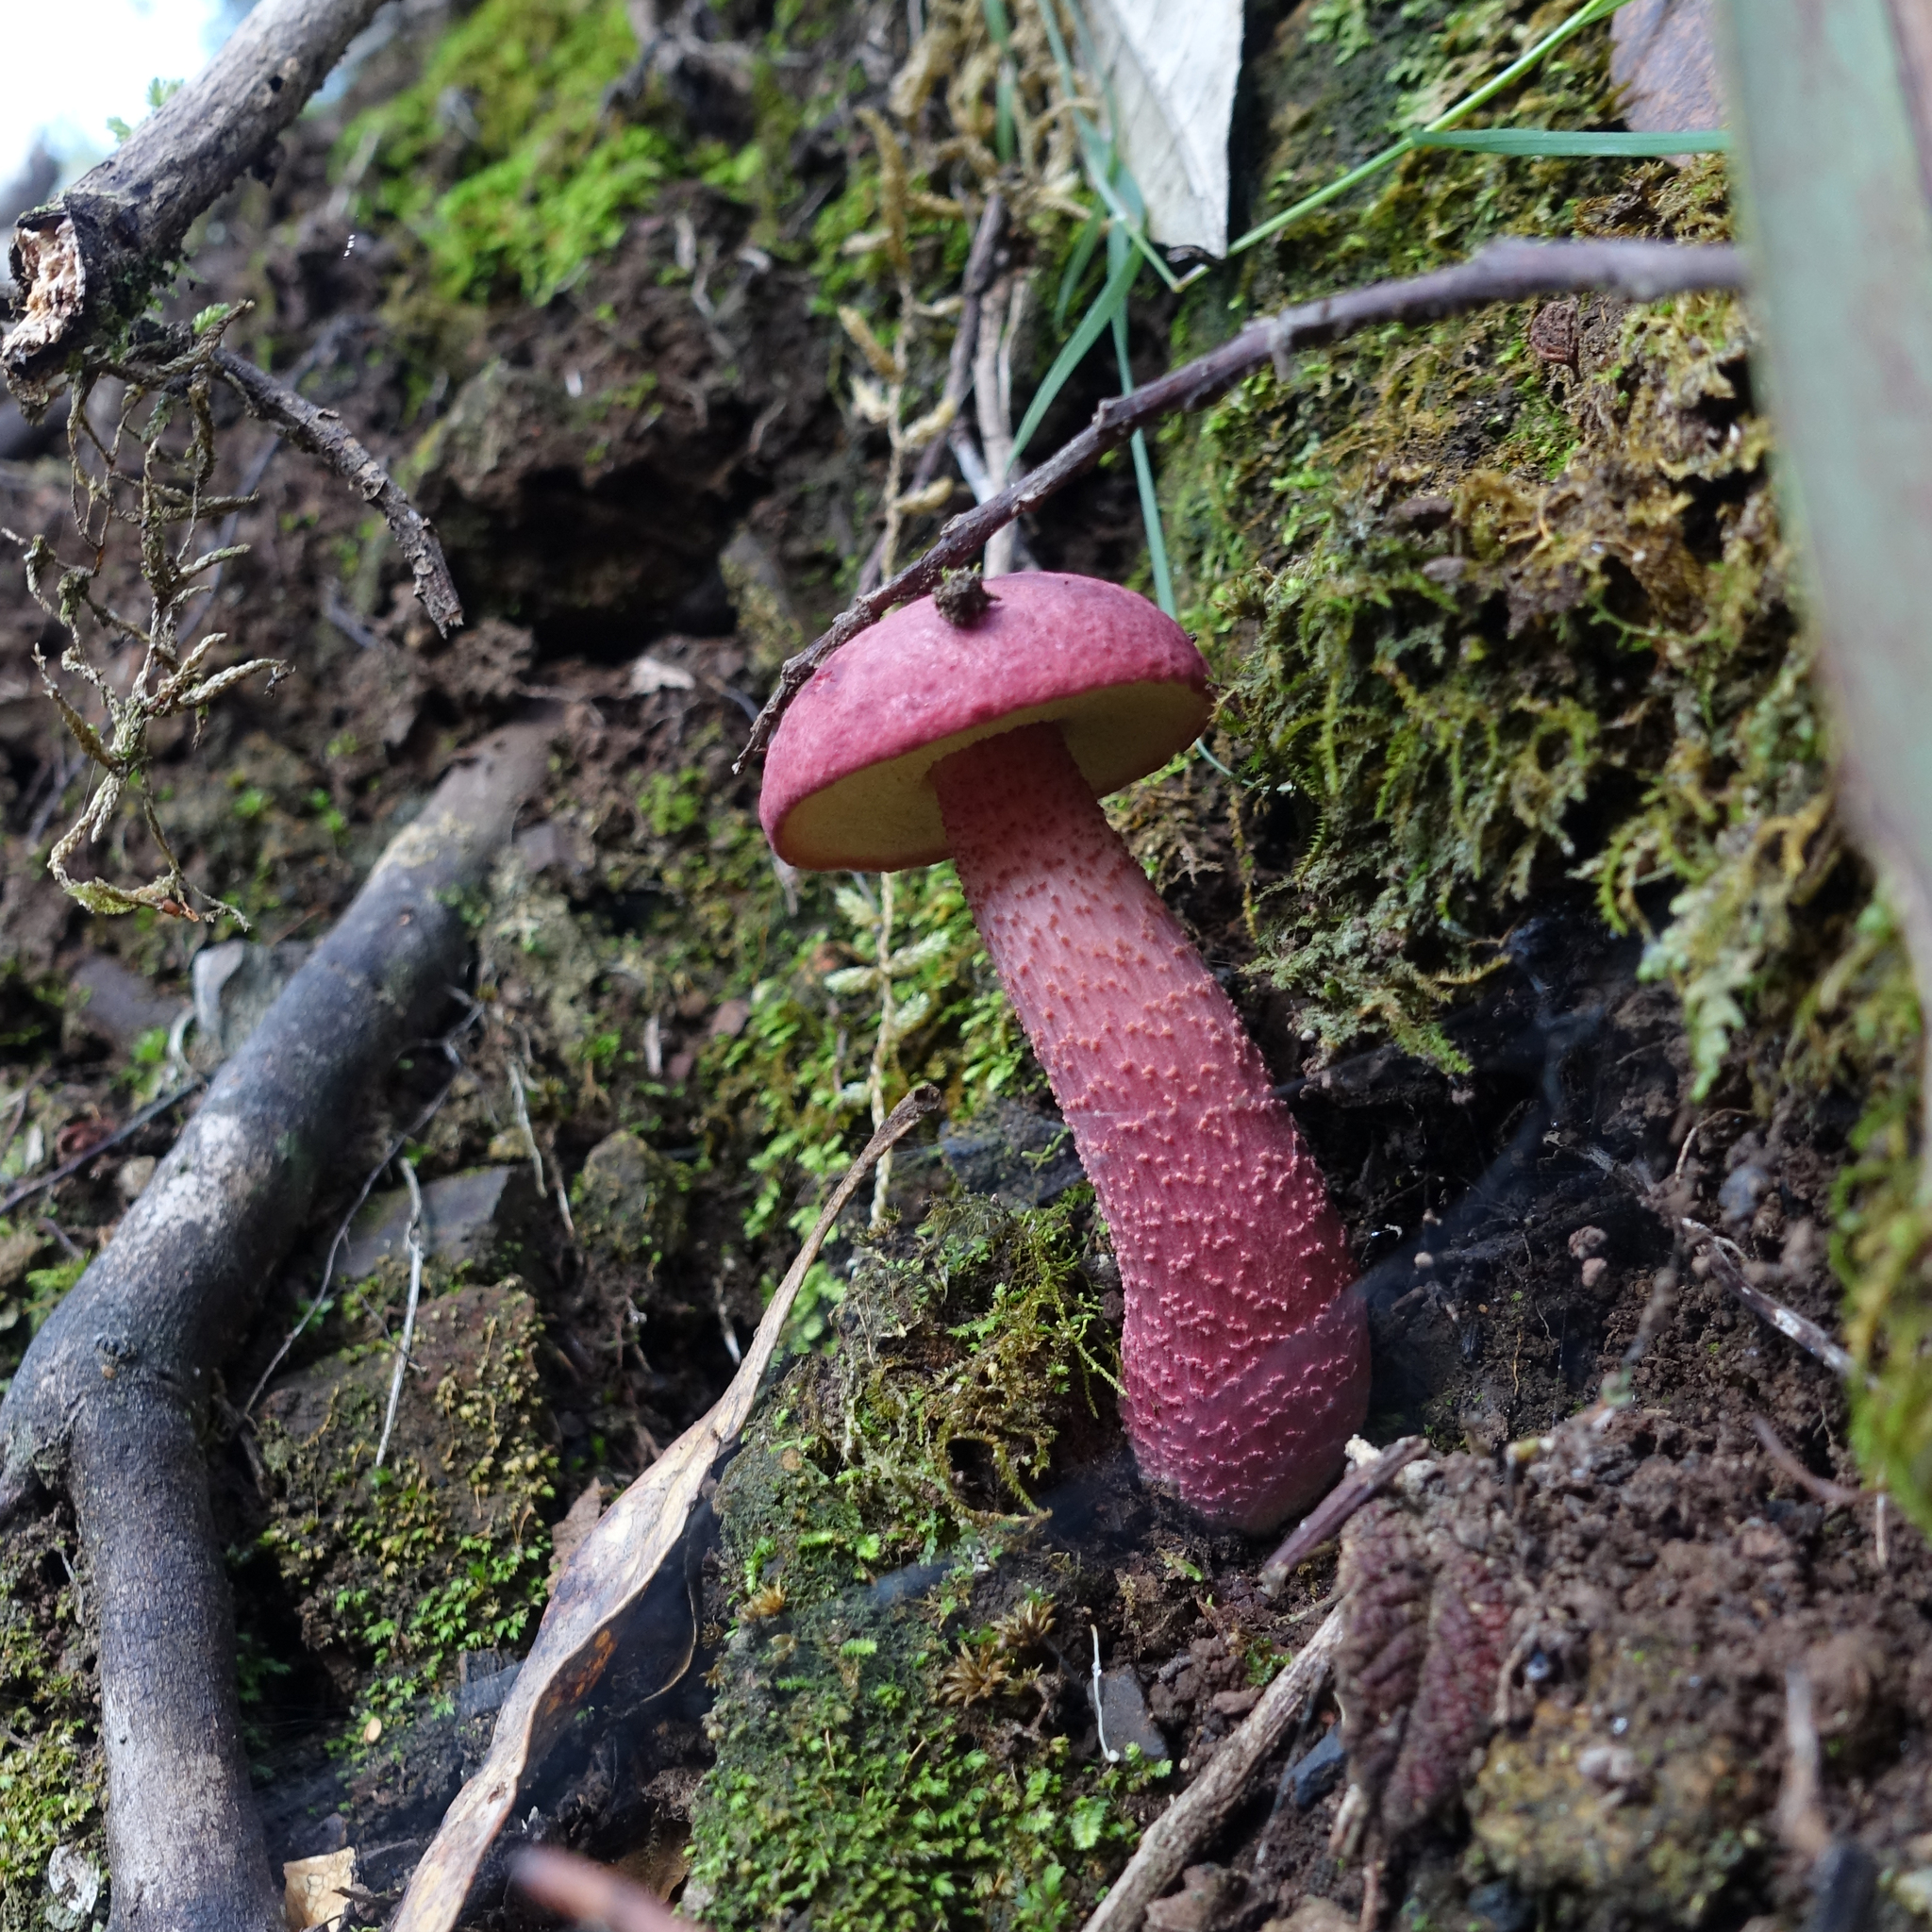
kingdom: Fungi
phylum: Basidiomycota
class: Agaricomycetes
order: Boletales
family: Boletaceae
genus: Boletellus
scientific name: Boletellus obscurecoccineus
